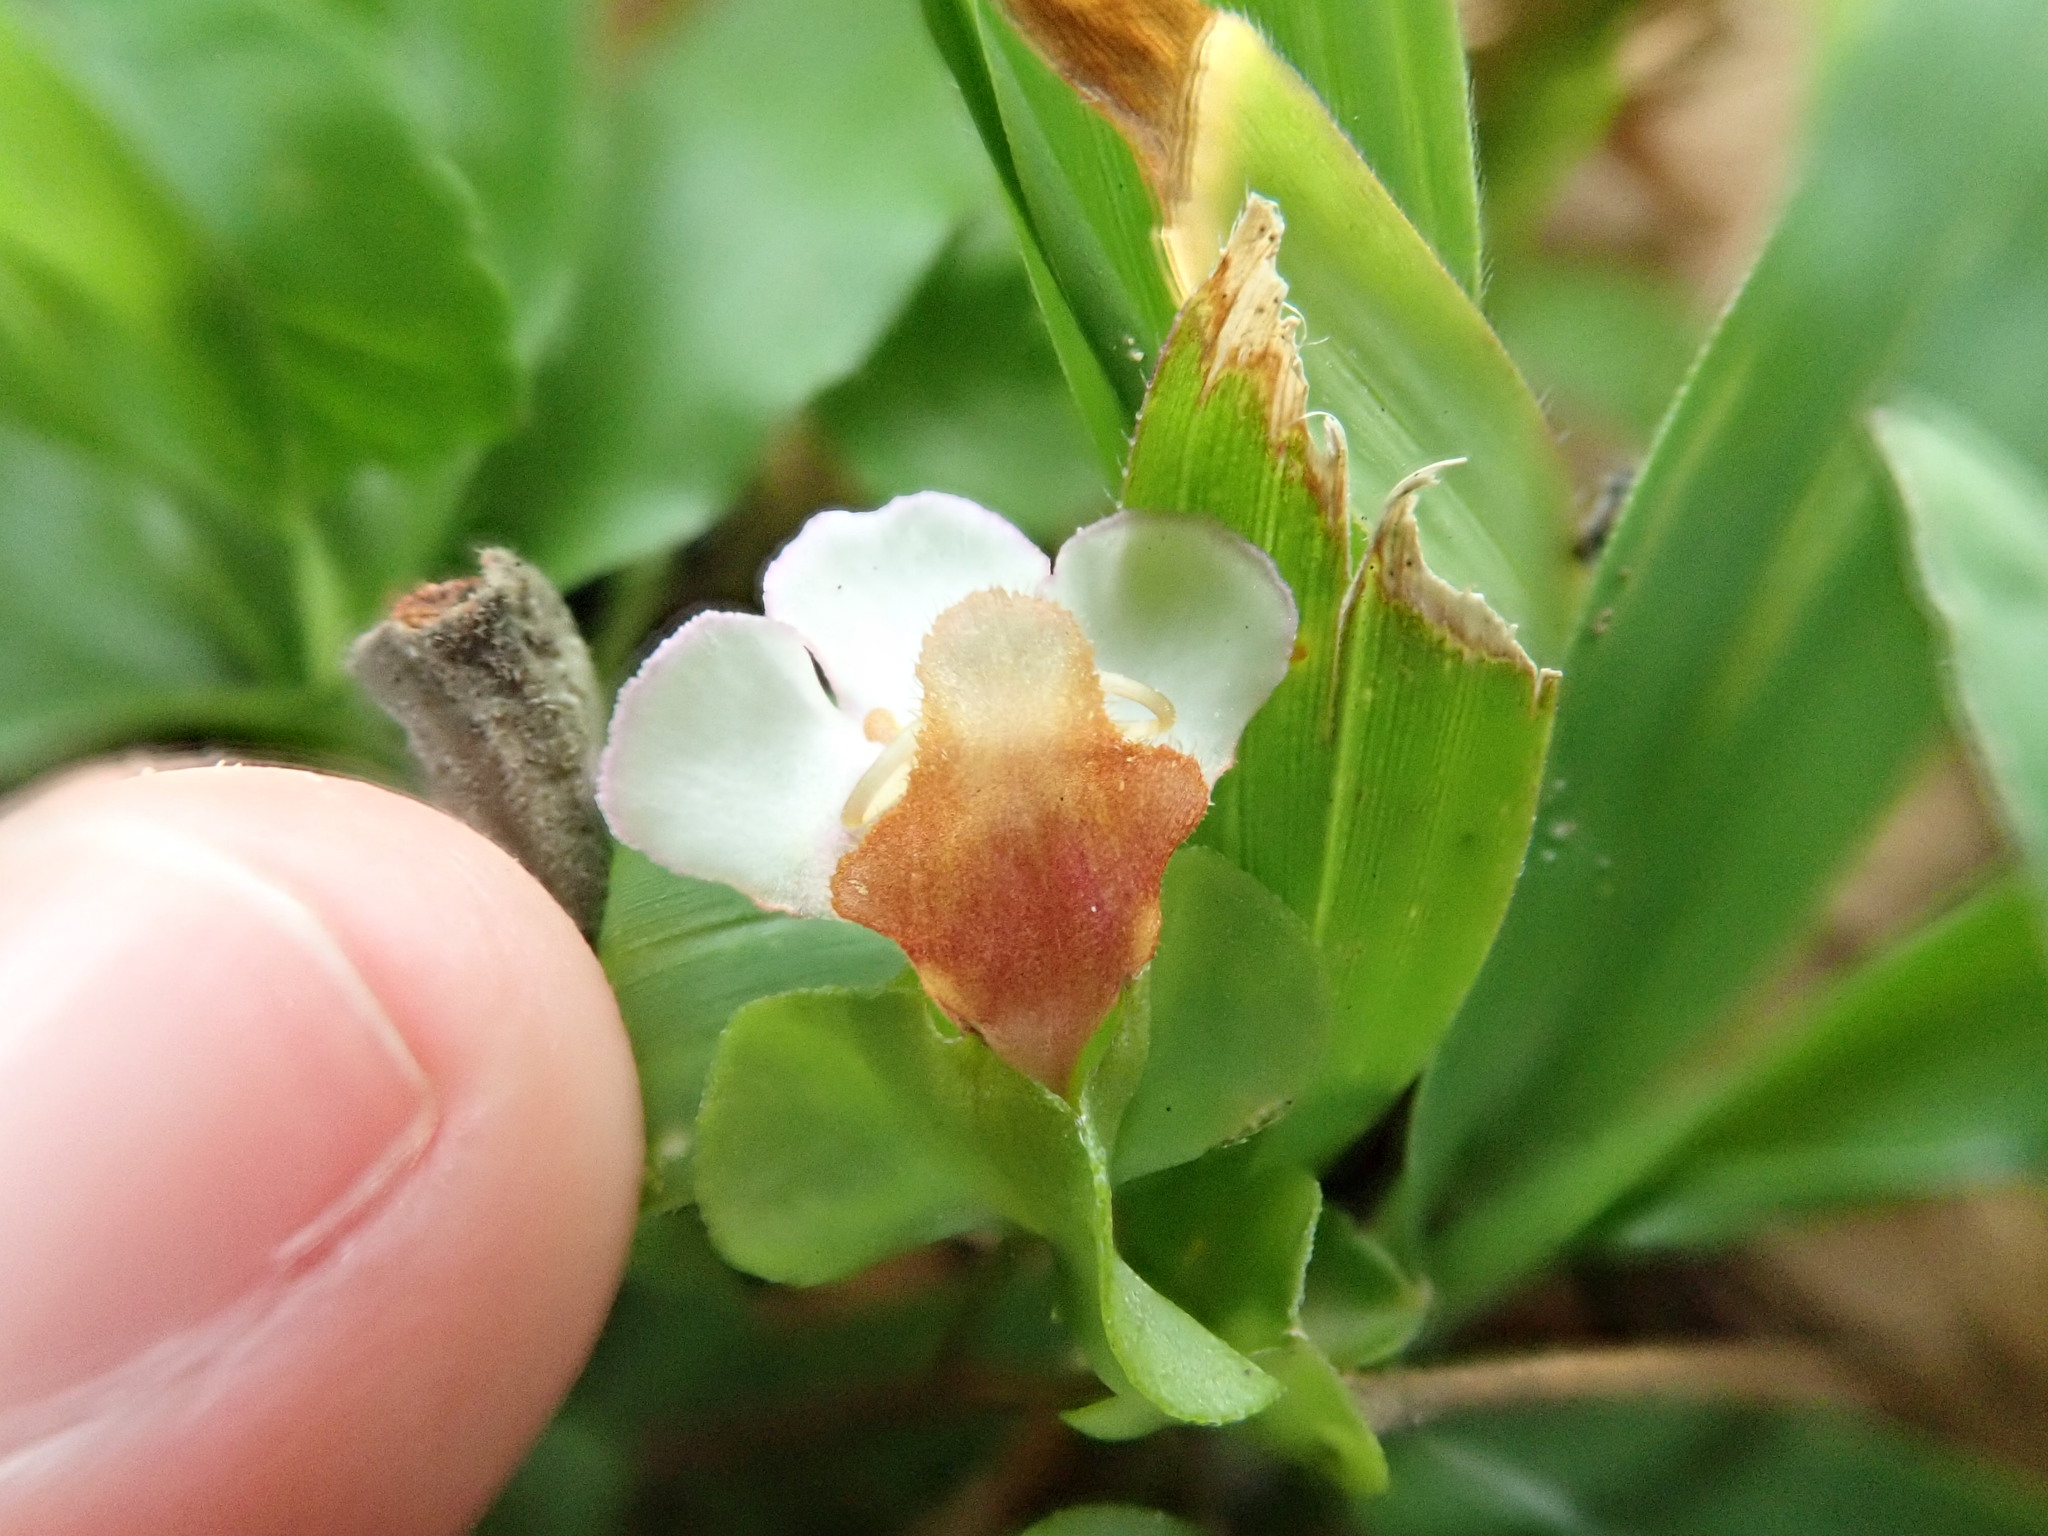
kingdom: Plantae
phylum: Tracheophyta
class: Magnoliopsida
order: Lamiales
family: Linderniaceae
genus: Legazpia
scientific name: Legazpia polygonoides
